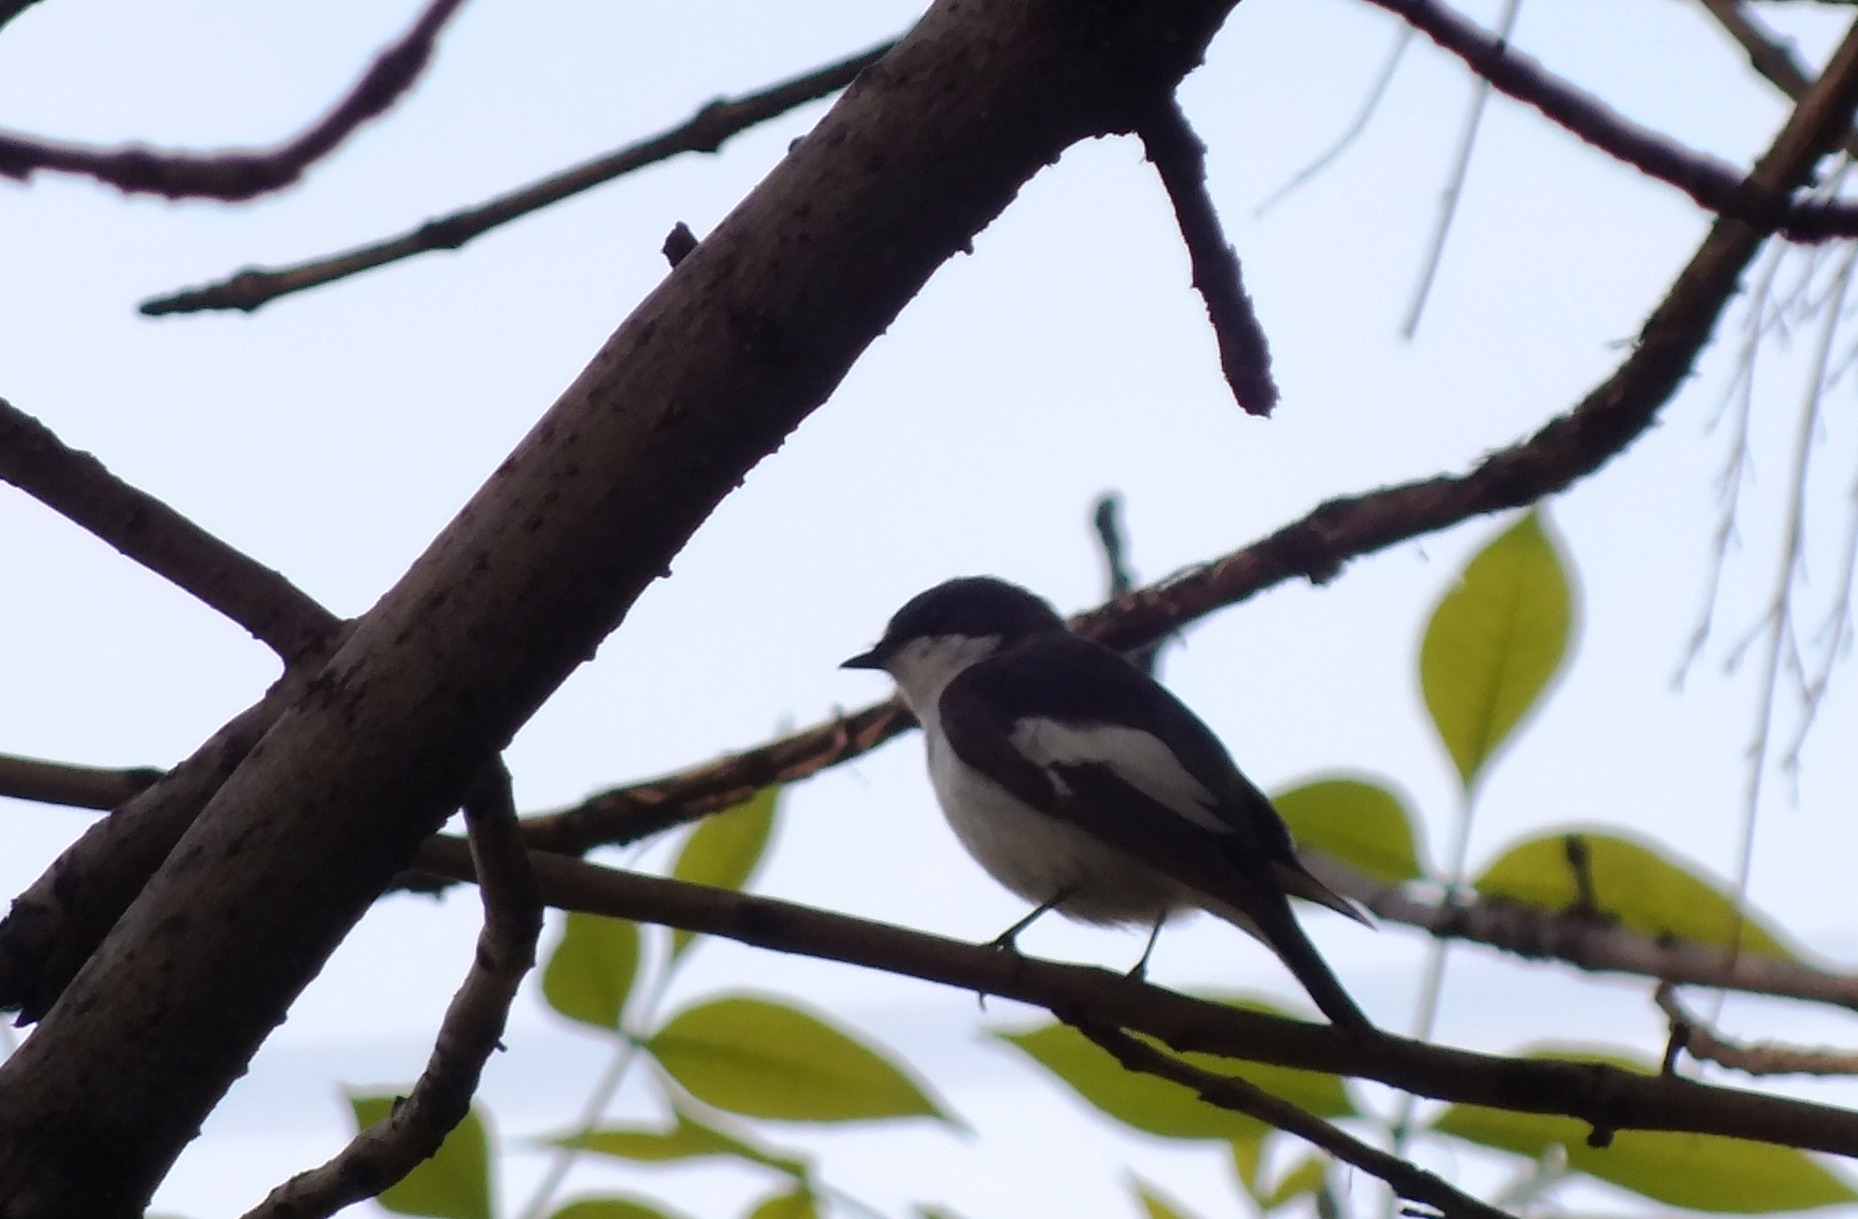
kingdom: Animalia
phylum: Chordata
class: Aves
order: Passeriformes
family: Muscicapidae
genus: Ficedula
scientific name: Ficedula hypoleuca
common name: European pied flycatcher
